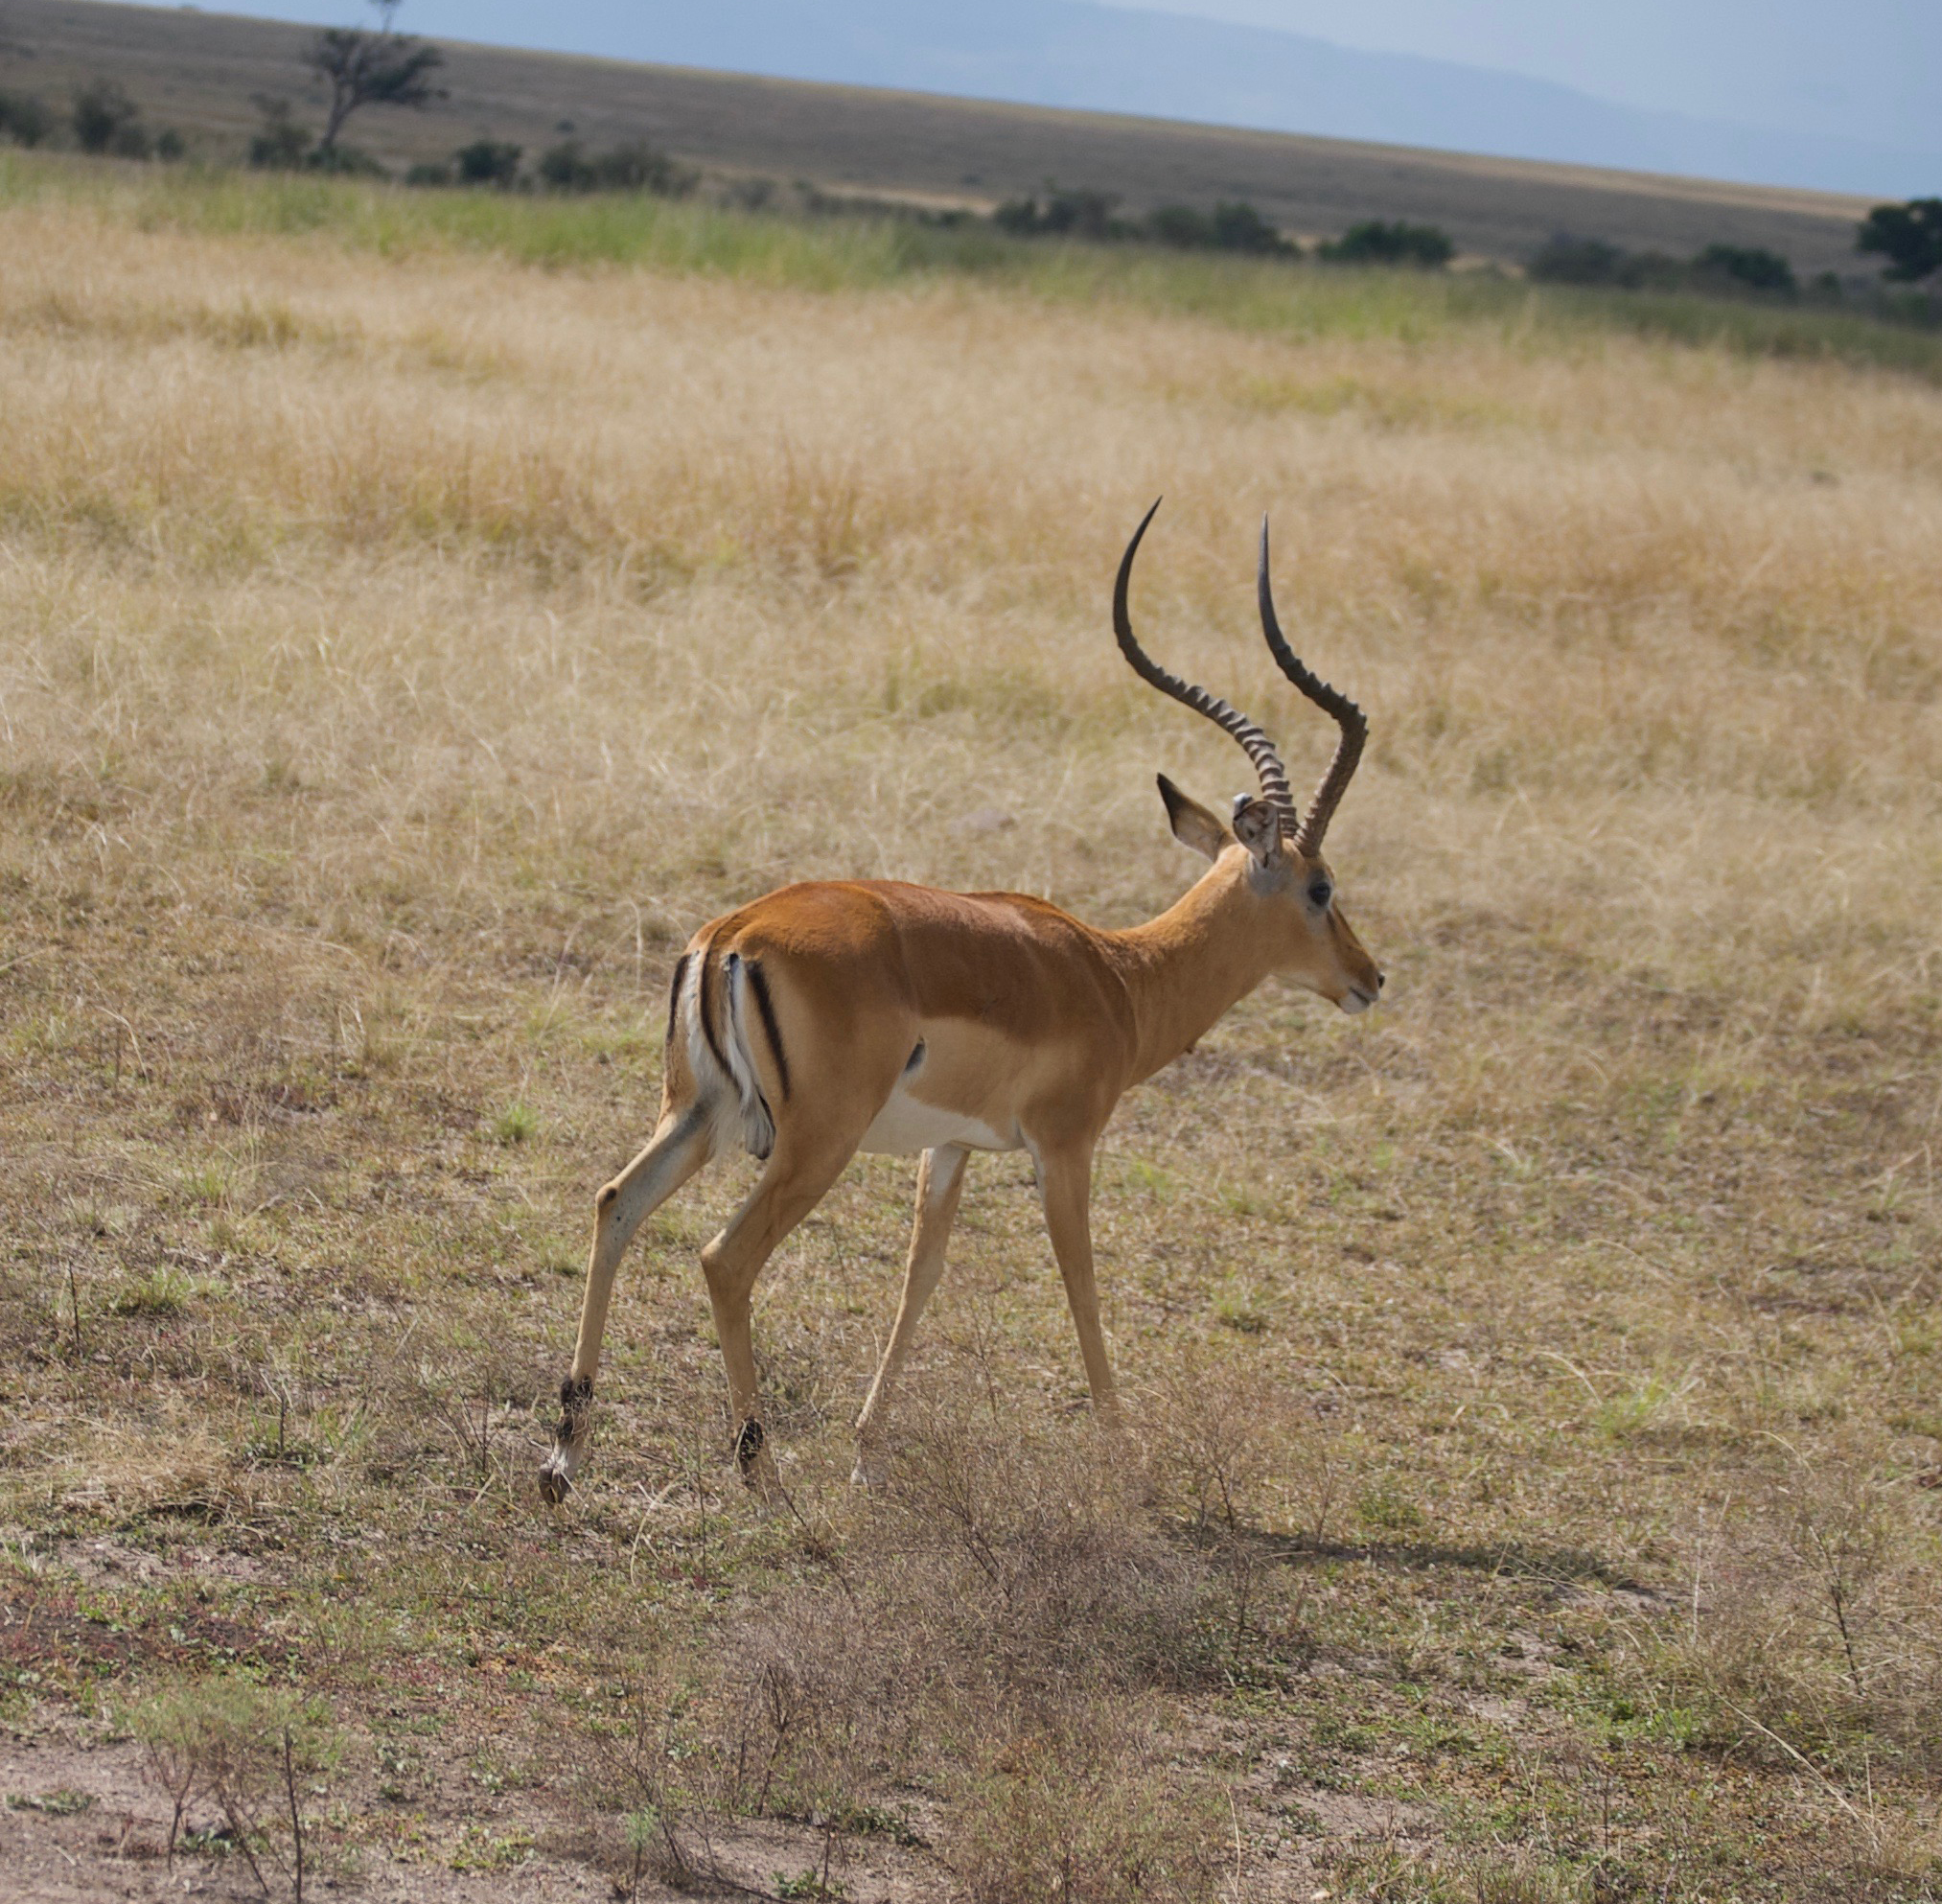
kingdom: Animalia
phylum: Chordata
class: Mammalia
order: Artiodactyla
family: Bovidae
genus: Aepyceros
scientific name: Aepyceros melampus
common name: Impala
